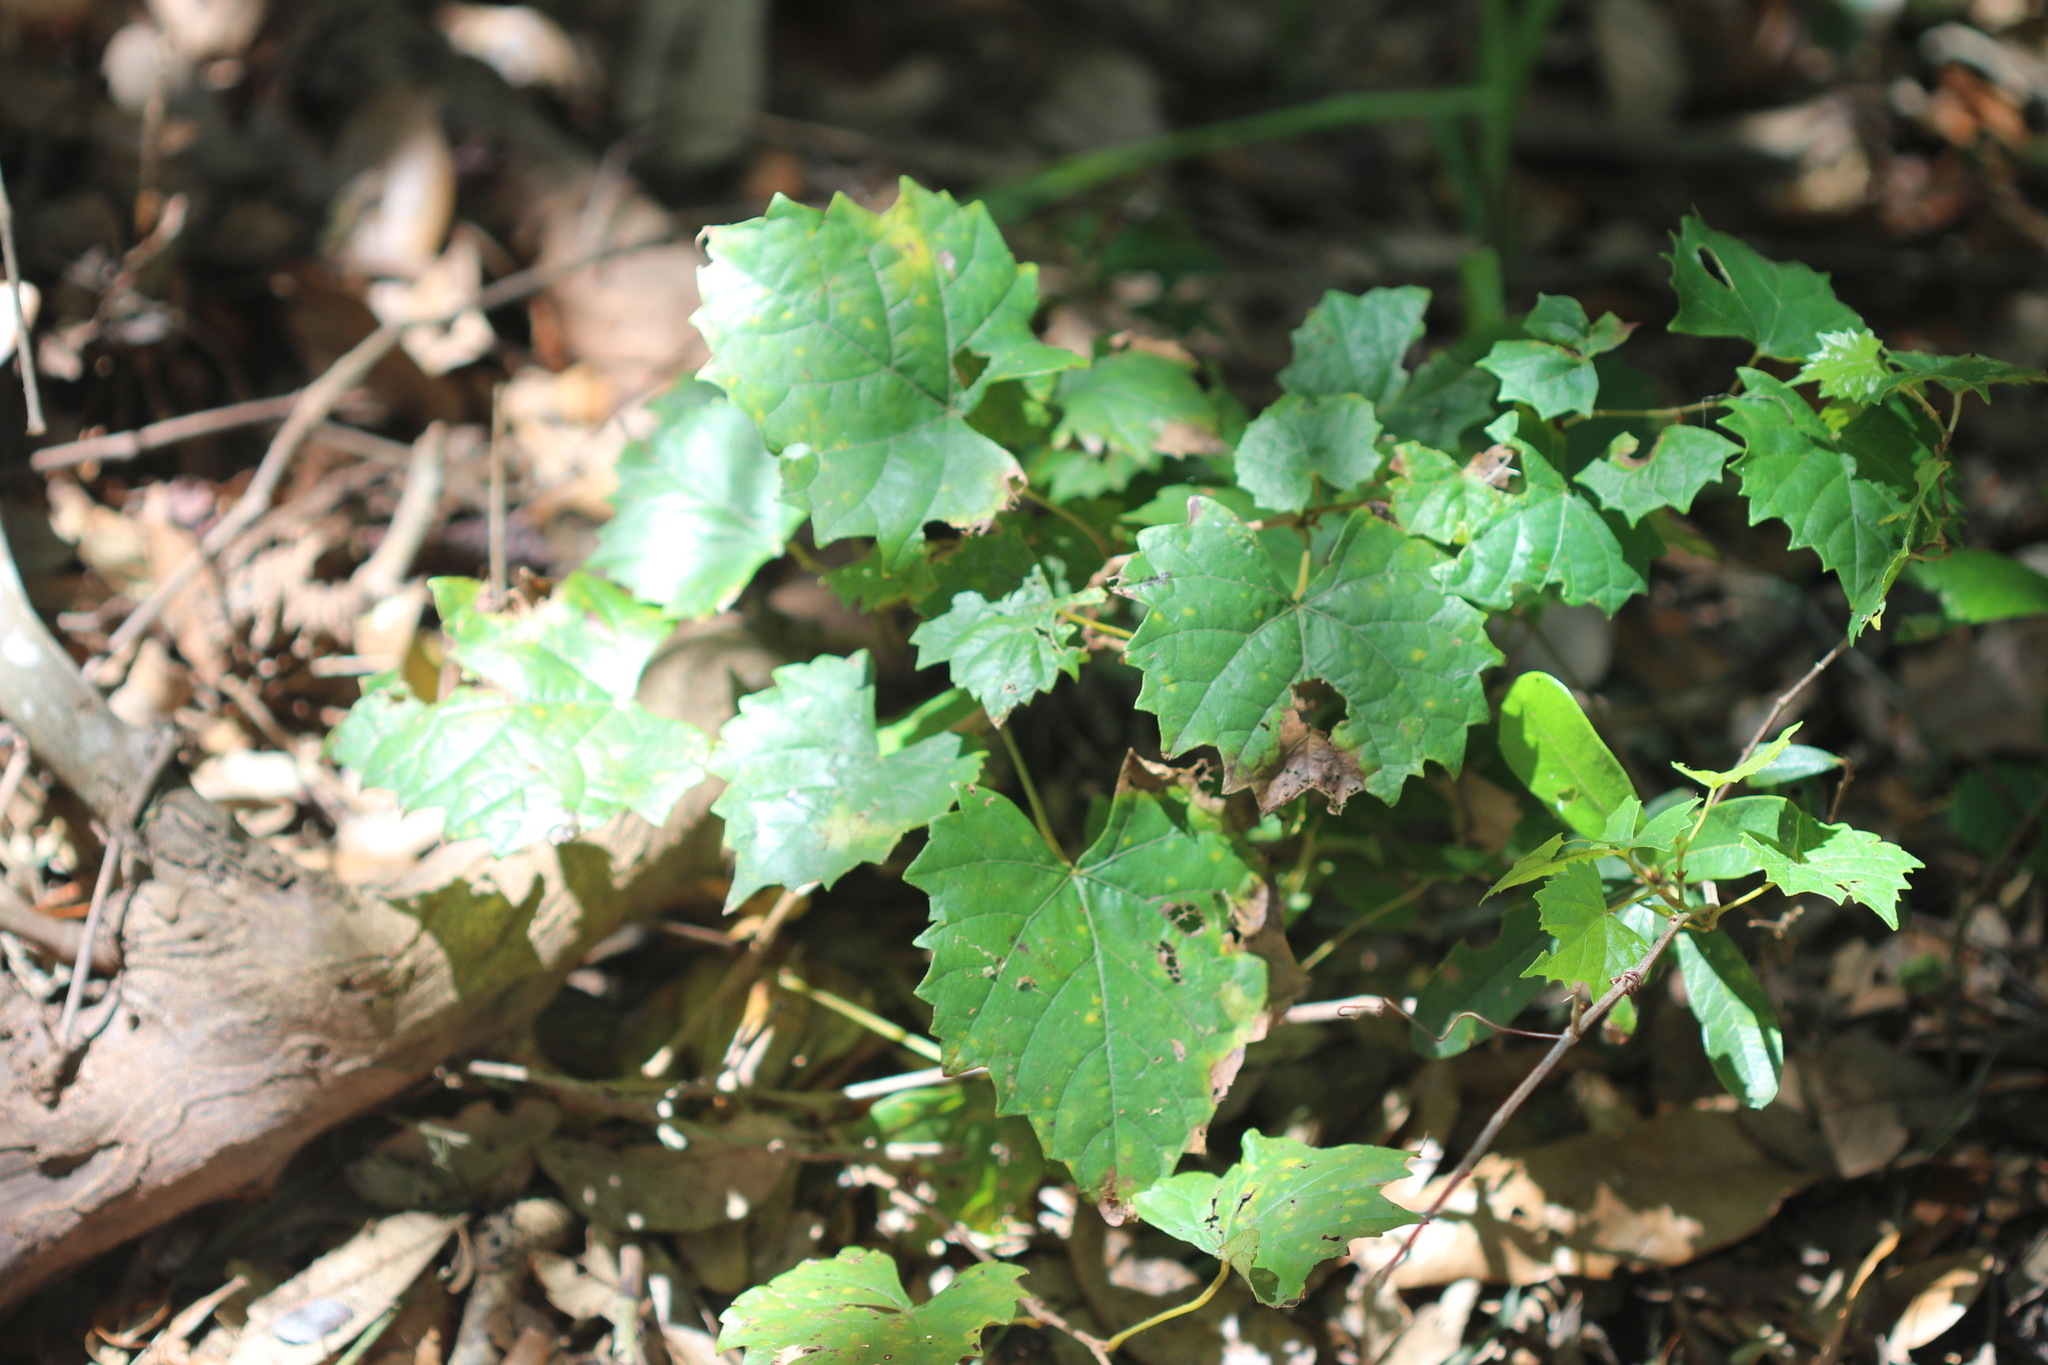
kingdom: Plantae
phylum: Tracheophyta
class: Magnoliopsida
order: Vitales
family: Vitaceae
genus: Vitis
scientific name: Vitis rotundifolia
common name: Muscadine grape
